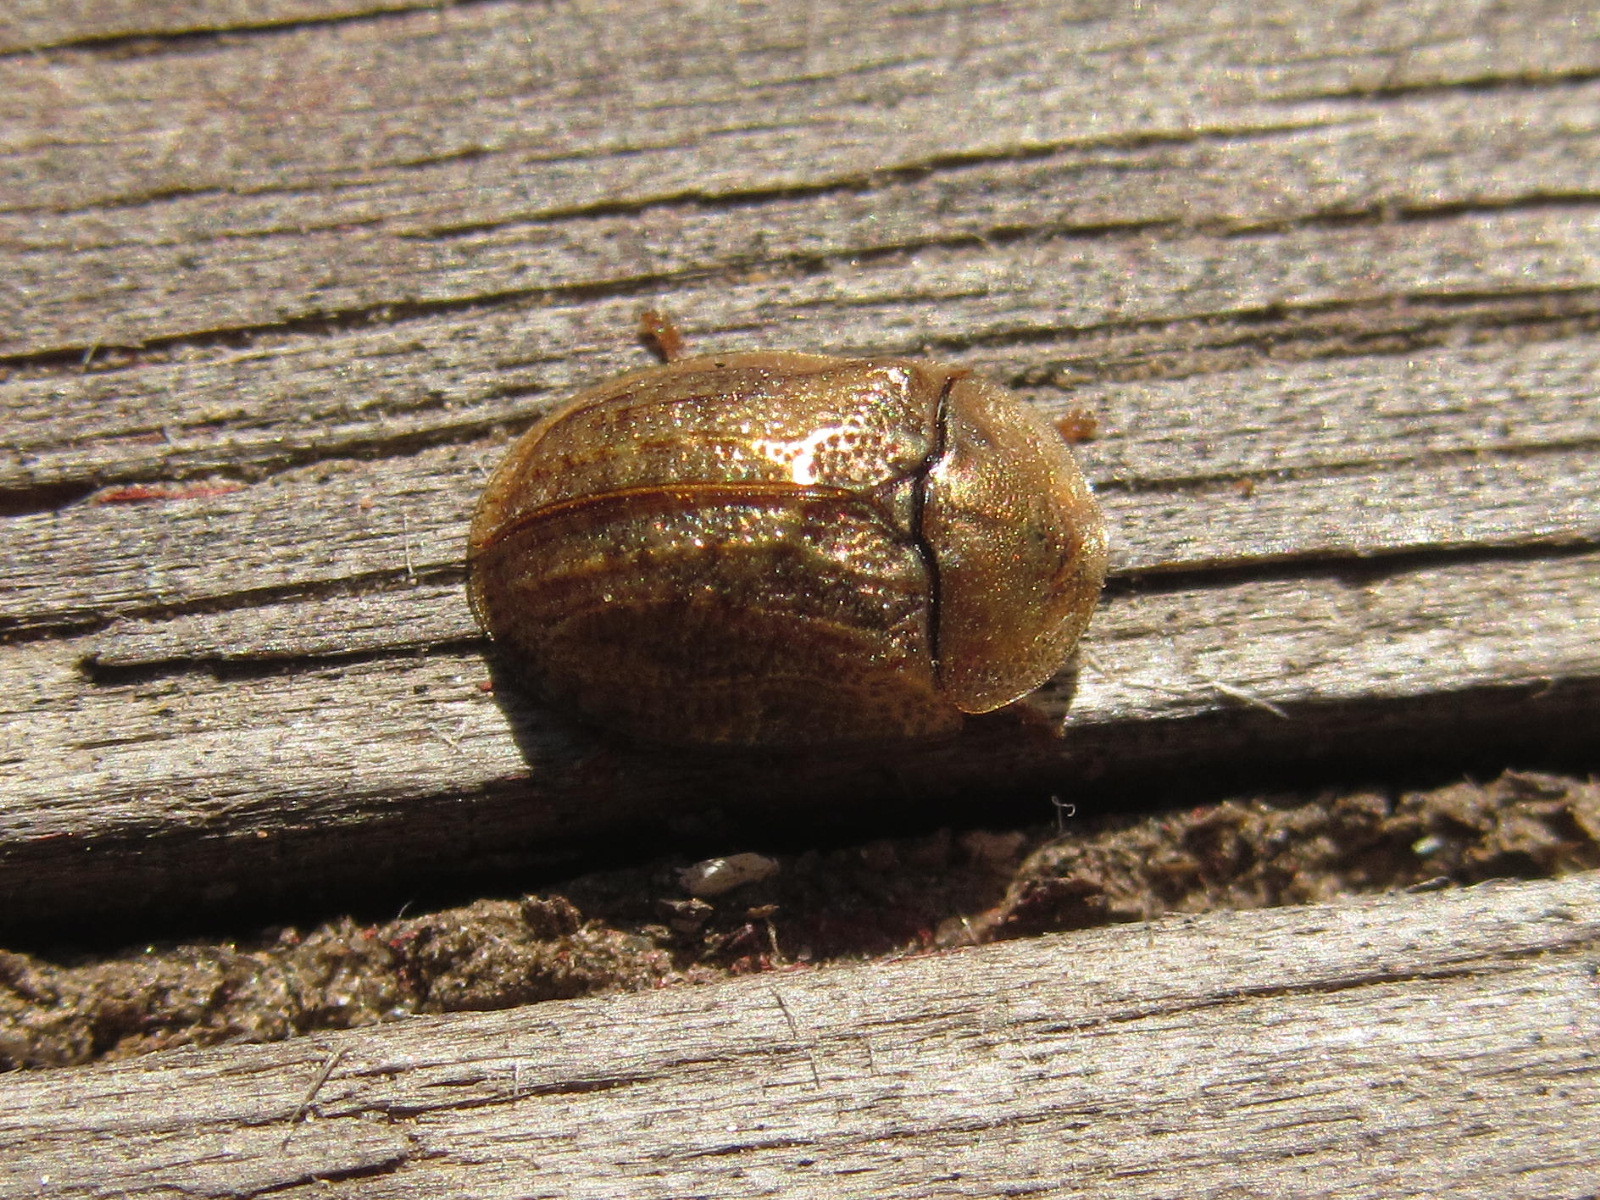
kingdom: Animalia
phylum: Arthropoda
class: Insecta
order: Coleoptera
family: Chrysomelidae
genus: Hypocassida
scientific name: Hypocassida subferruginea
